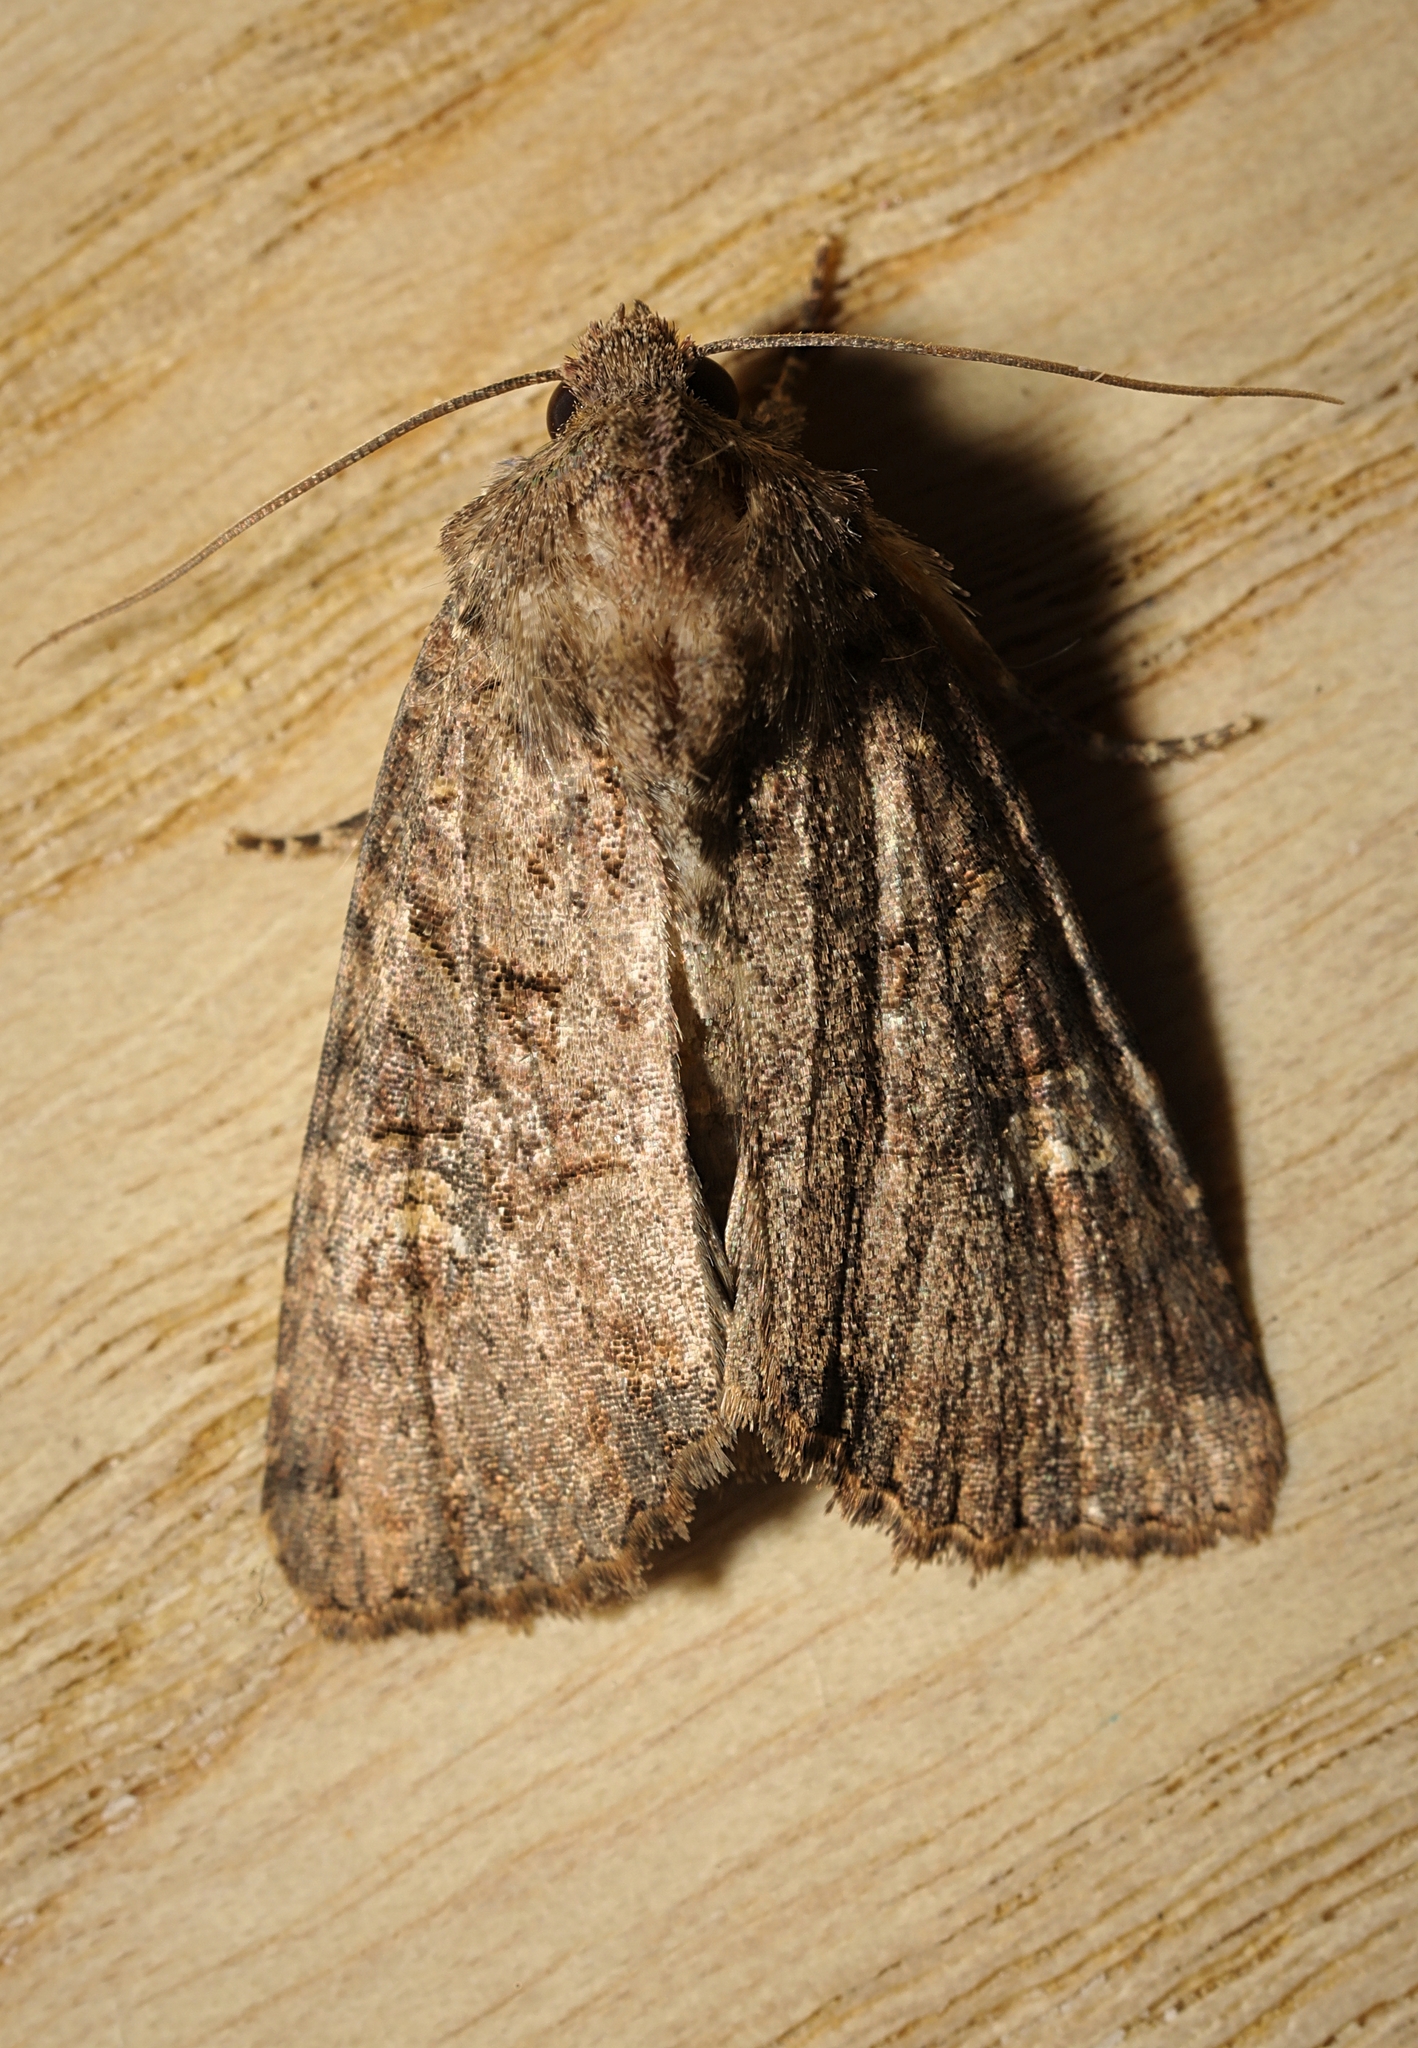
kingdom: Animalia
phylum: Arthropoda
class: Insecta
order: Lepidoptera
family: Noctuidae
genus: Mesapamea
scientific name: Mesapamea
